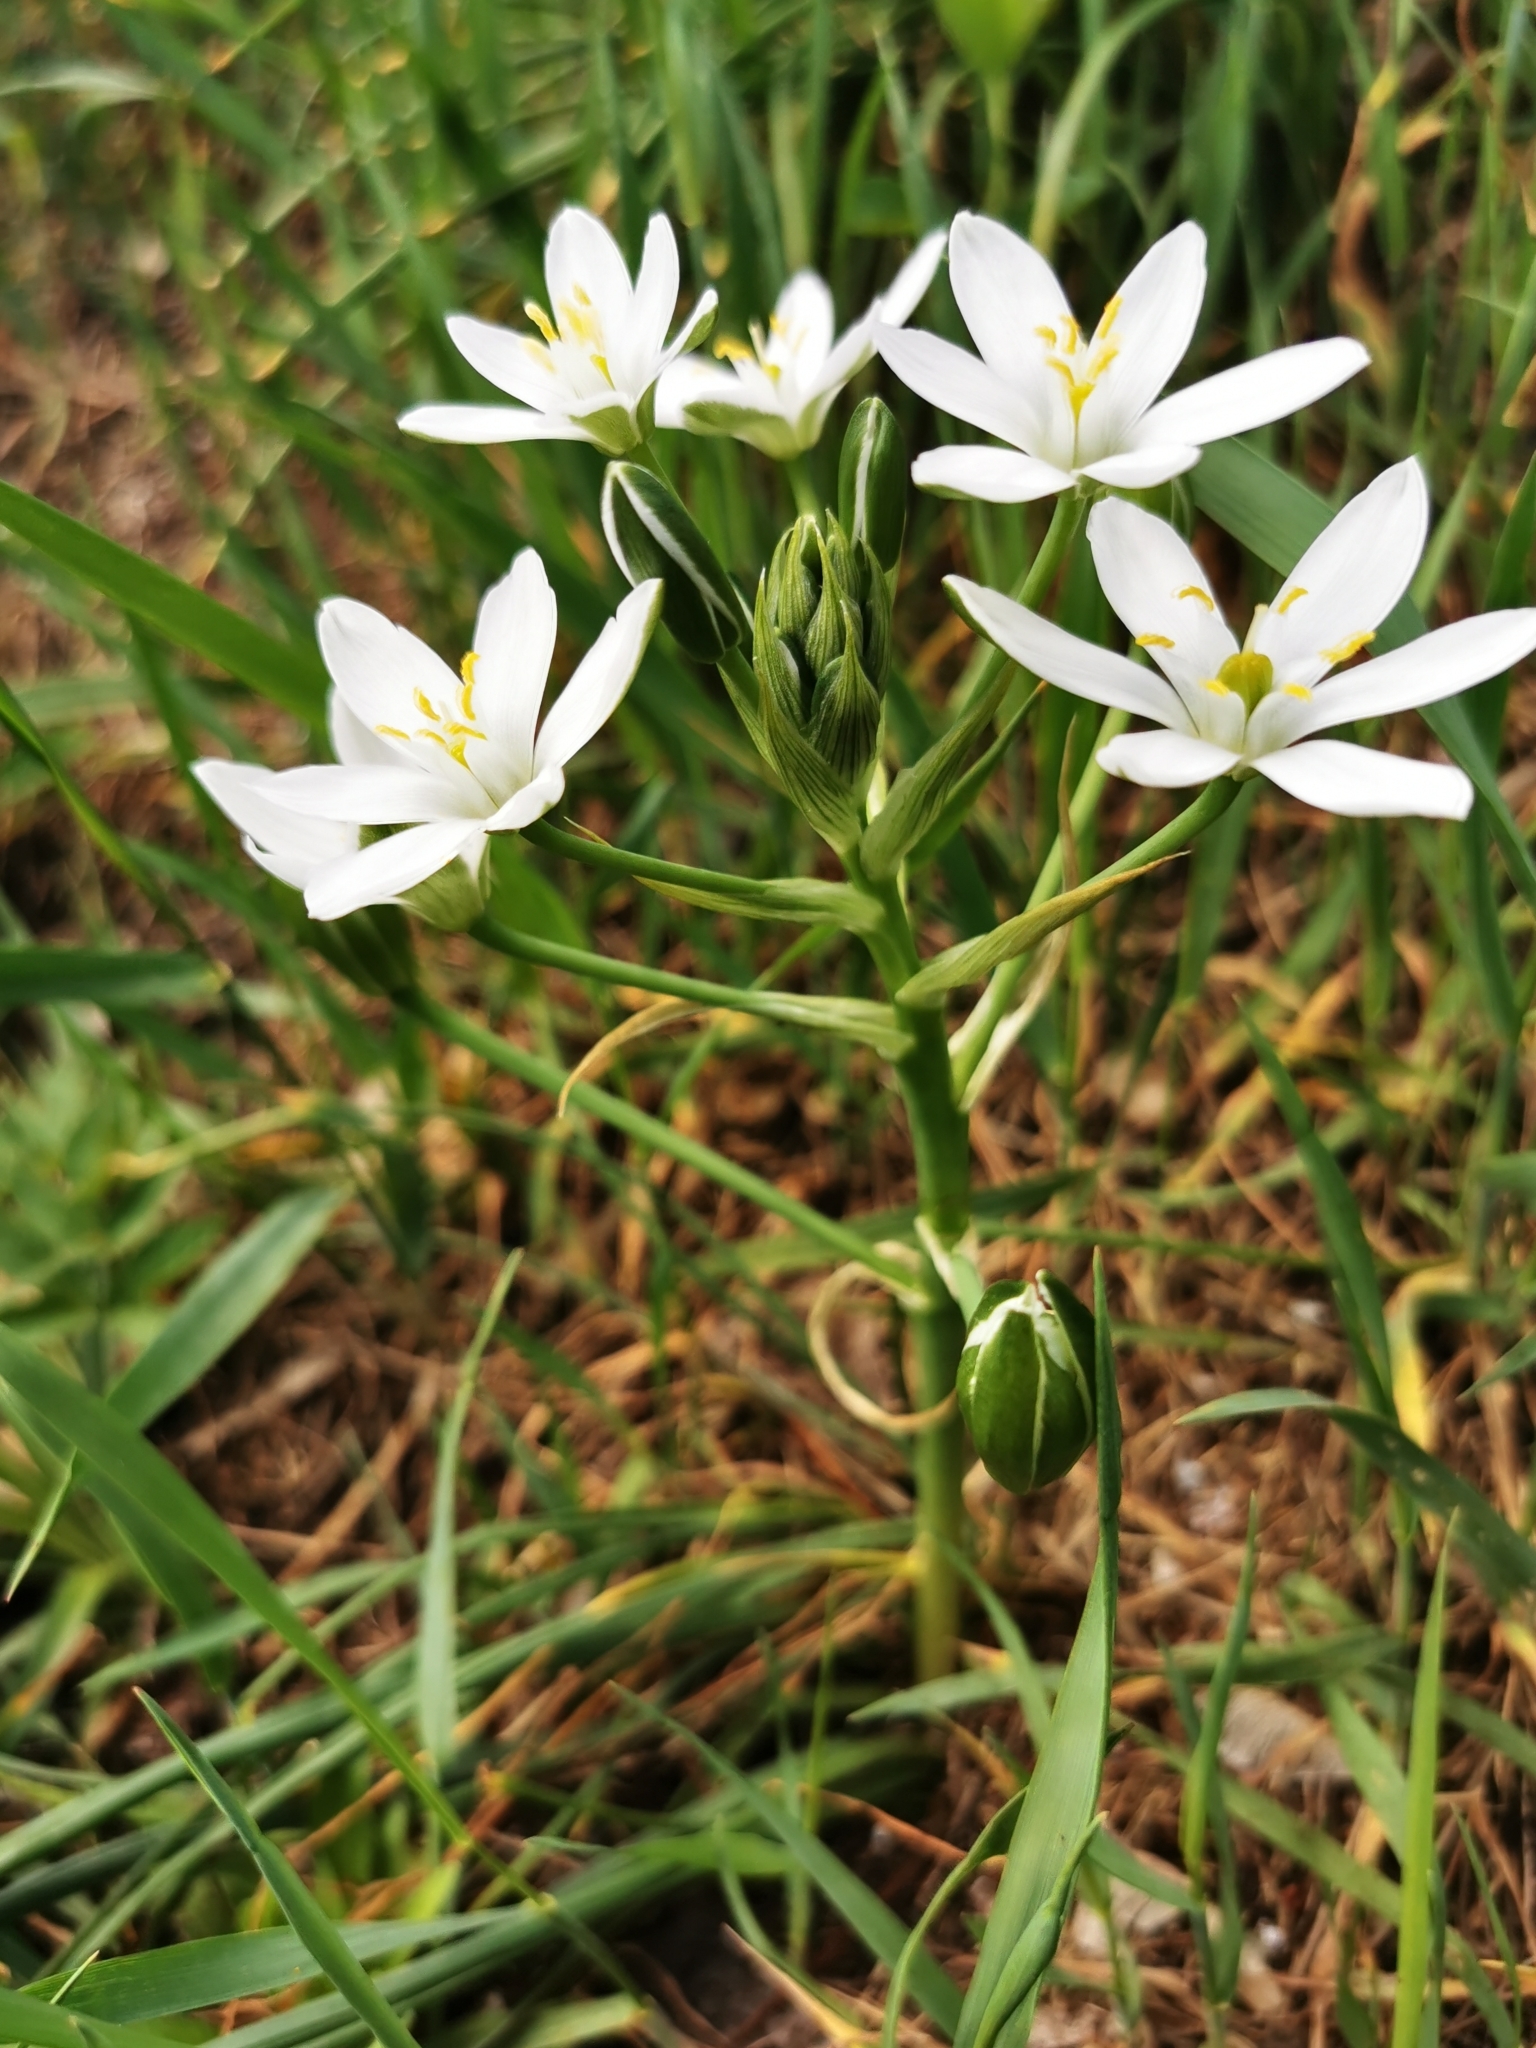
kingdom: Plantae
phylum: Tracheophyta
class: Liliopsida
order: Asparagales
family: Asparagaceae
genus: Ornithogalum
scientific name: Ornithogalum umbellatum
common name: Garden star-of-bethlehem
